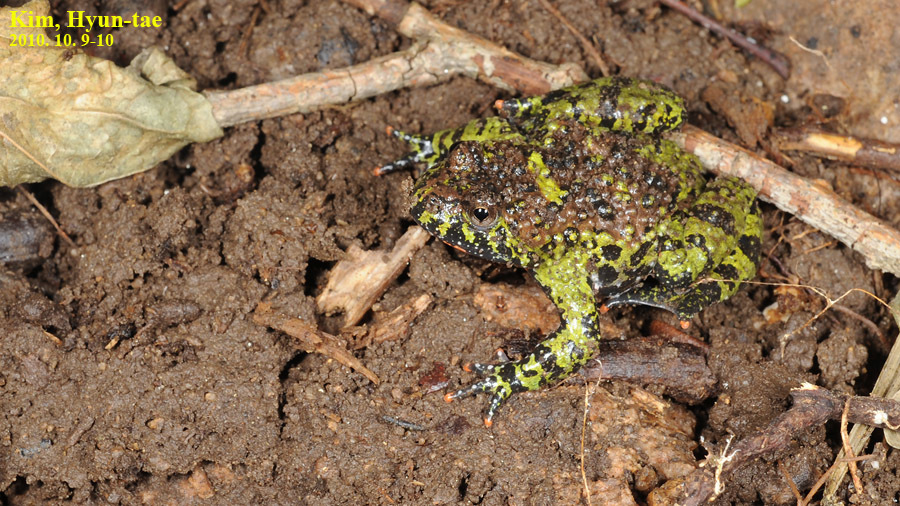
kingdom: Animalia
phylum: Chordata
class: Amphibia
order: Anura
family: Bombinatoridae
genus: Bombina
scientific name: Bombina orientalis
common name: Oriental firebelly toad
